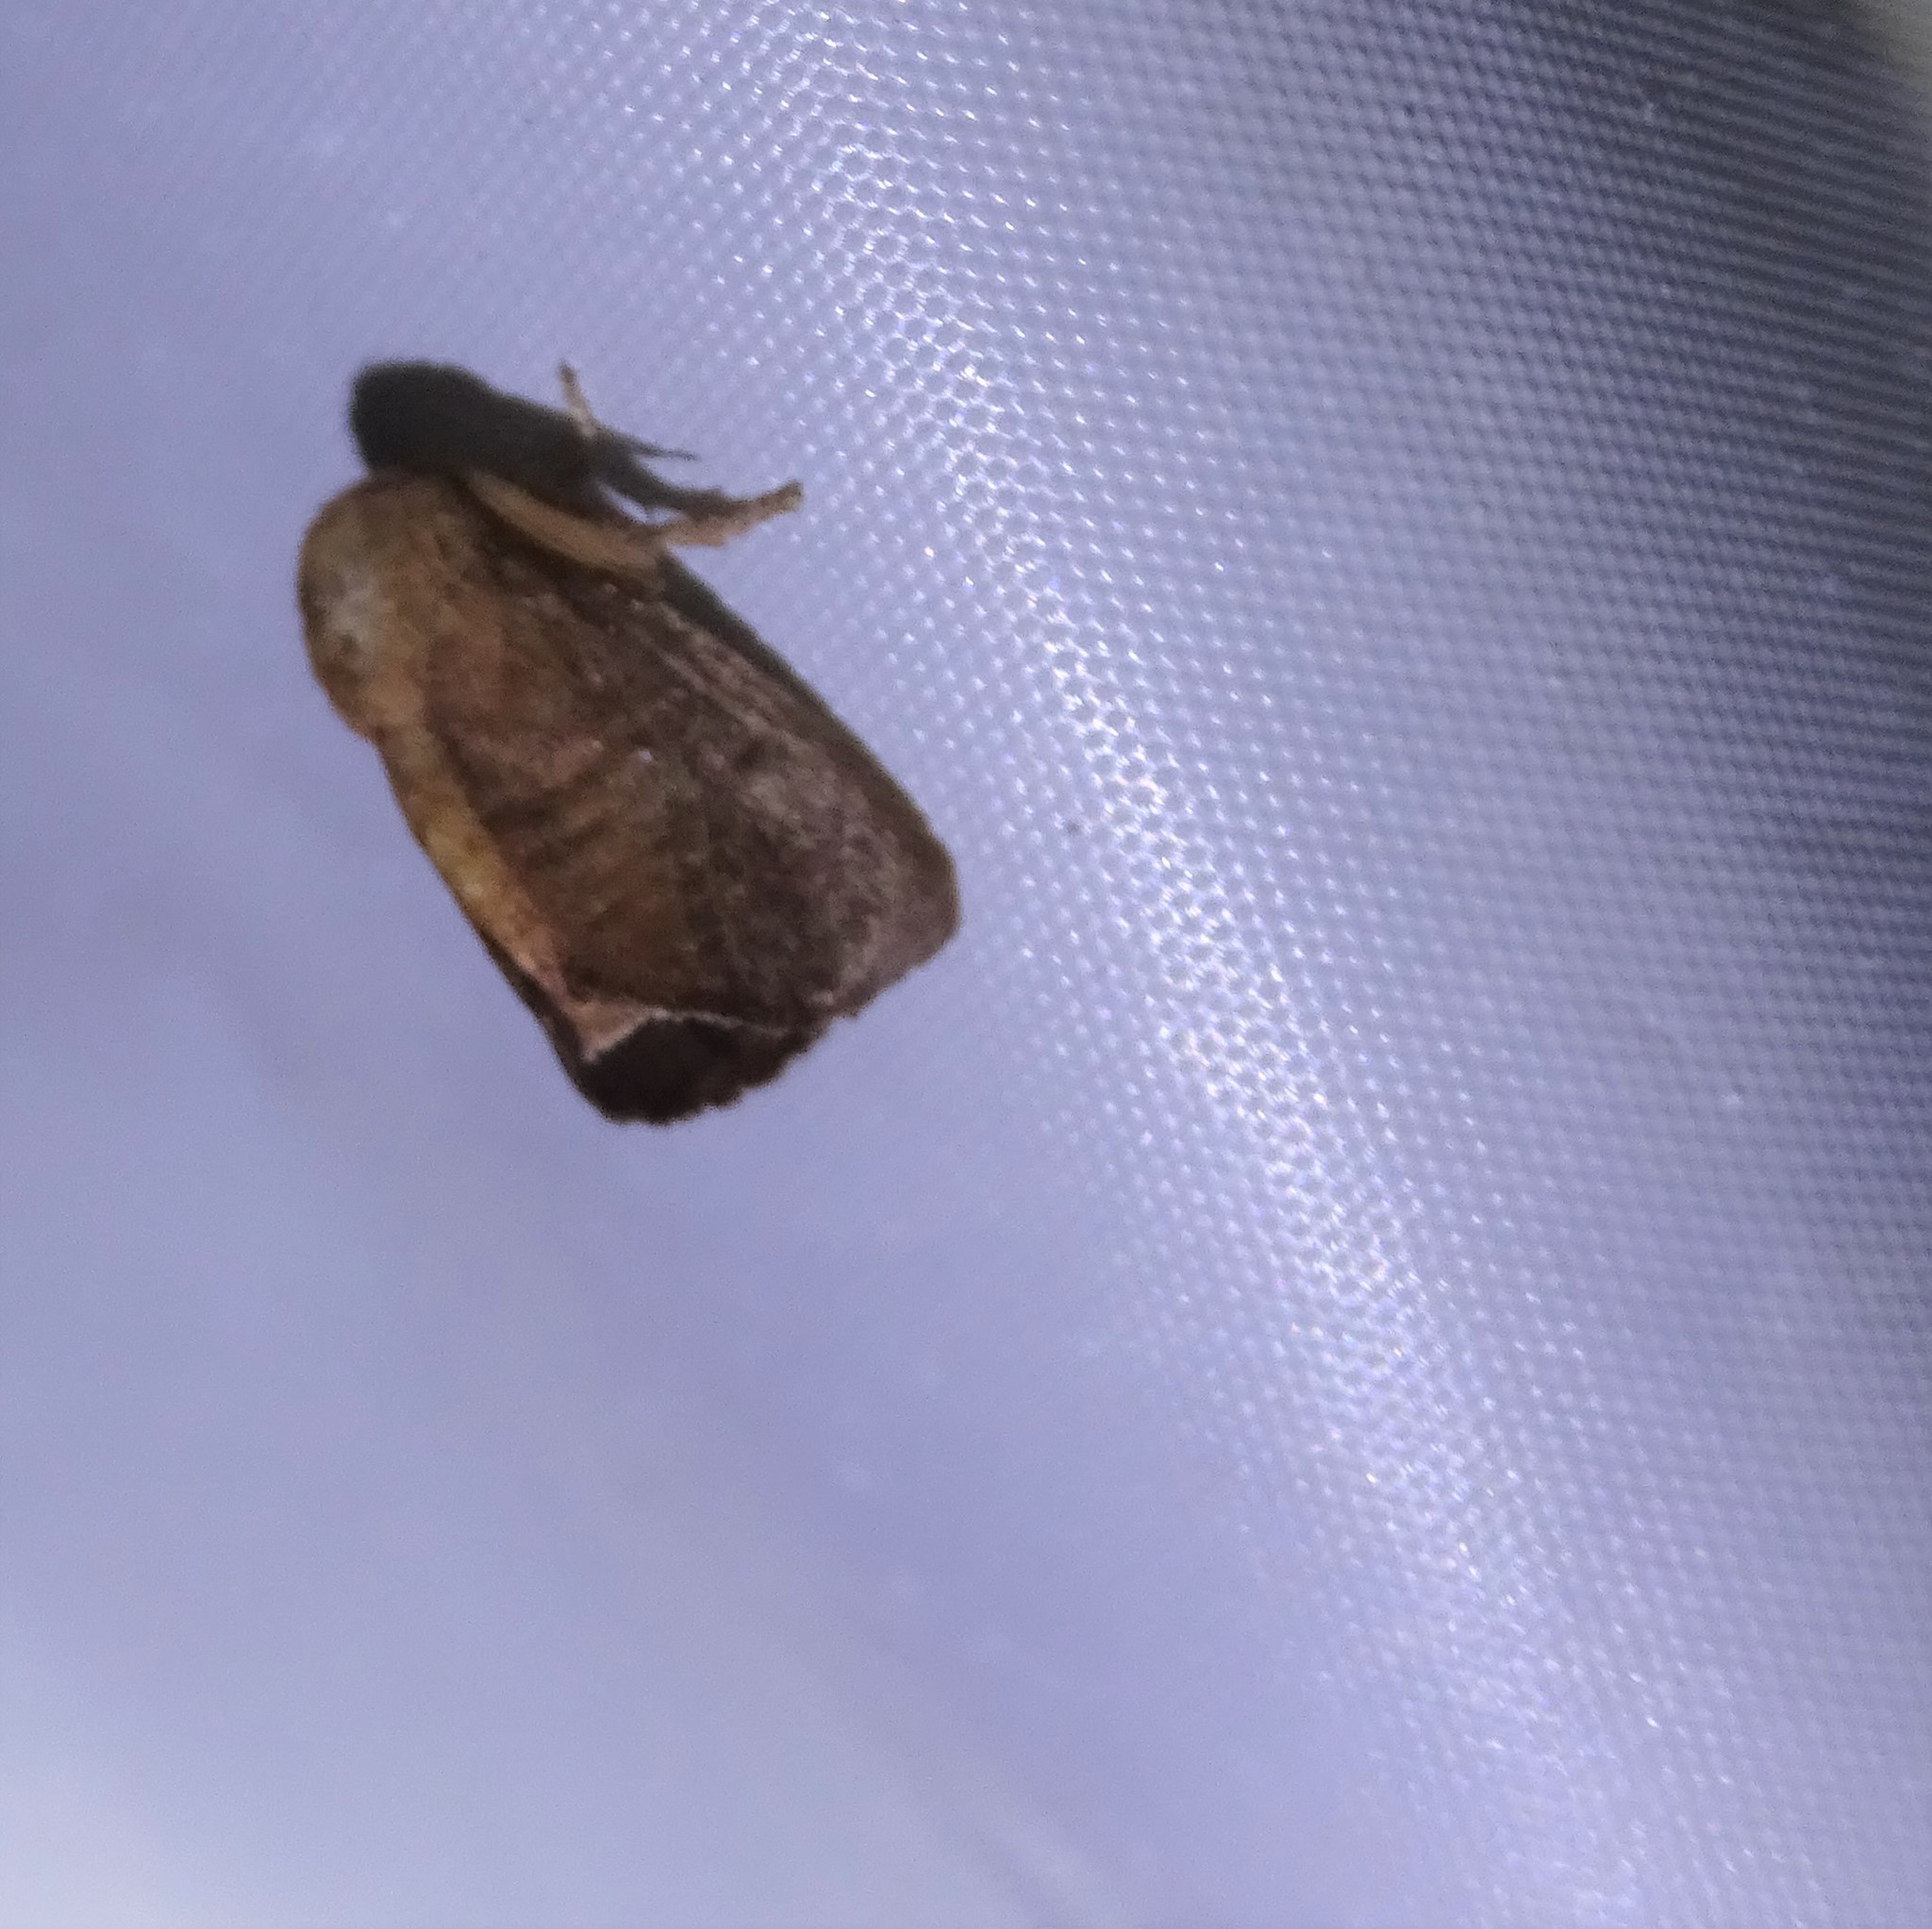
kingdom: Animalia
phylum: Arthropoda
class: Insecta
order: Lepidoptera
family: Limacodidae
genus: Isa
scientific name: Isa textula
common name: Crowned slug moth
